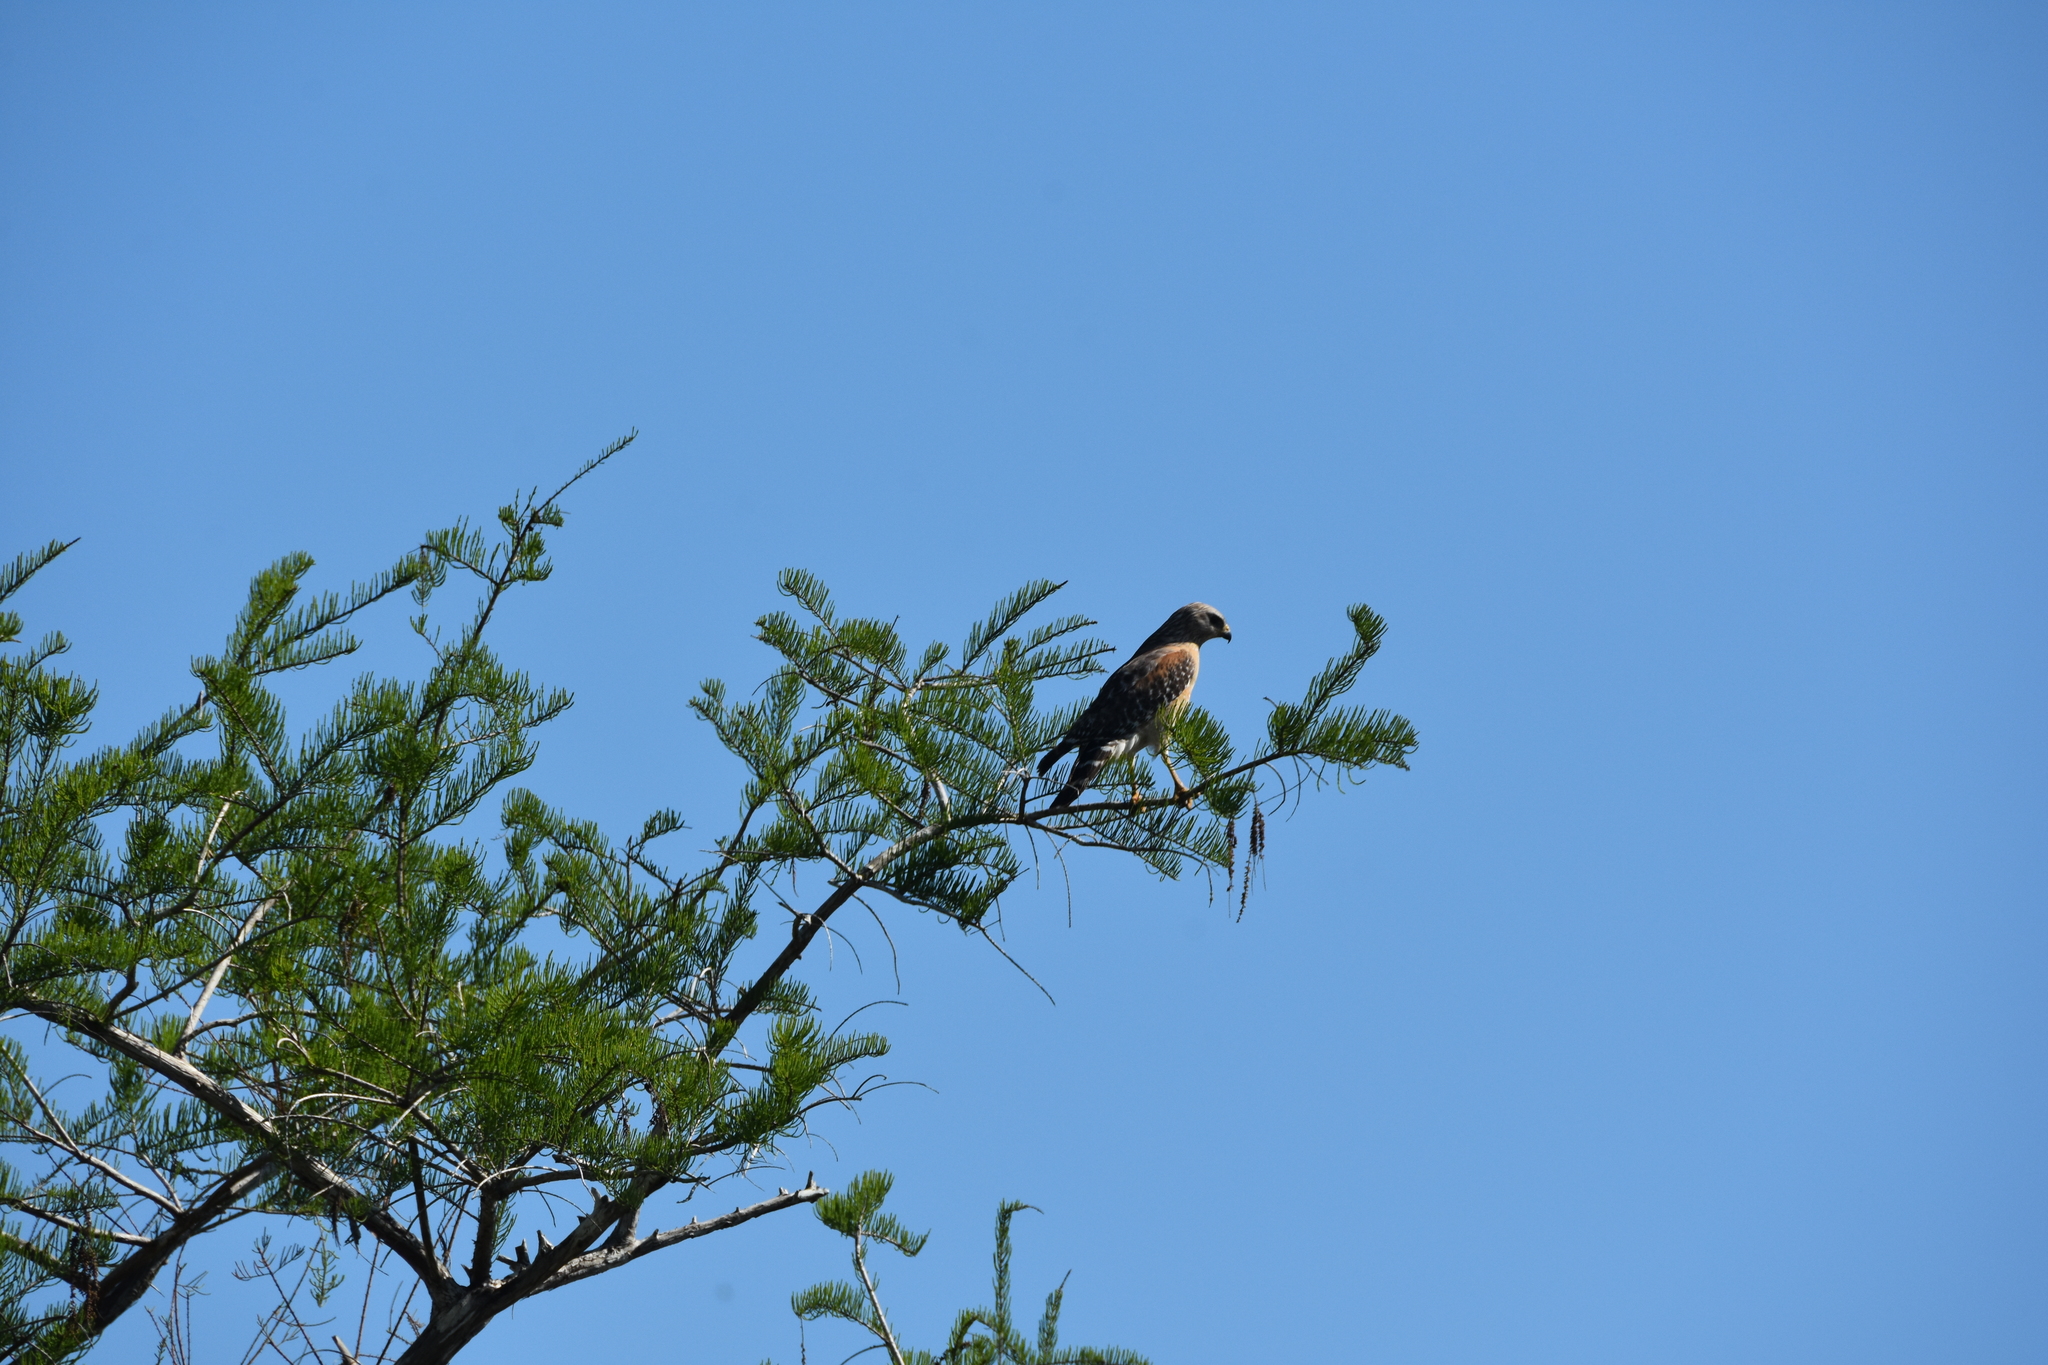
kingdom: Animalia
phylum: Chordata
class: Aves
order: Accipitriformes
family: Accipitridae
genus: Buteo
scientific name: Buteo lineatus
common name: Red-shouldered hawk
